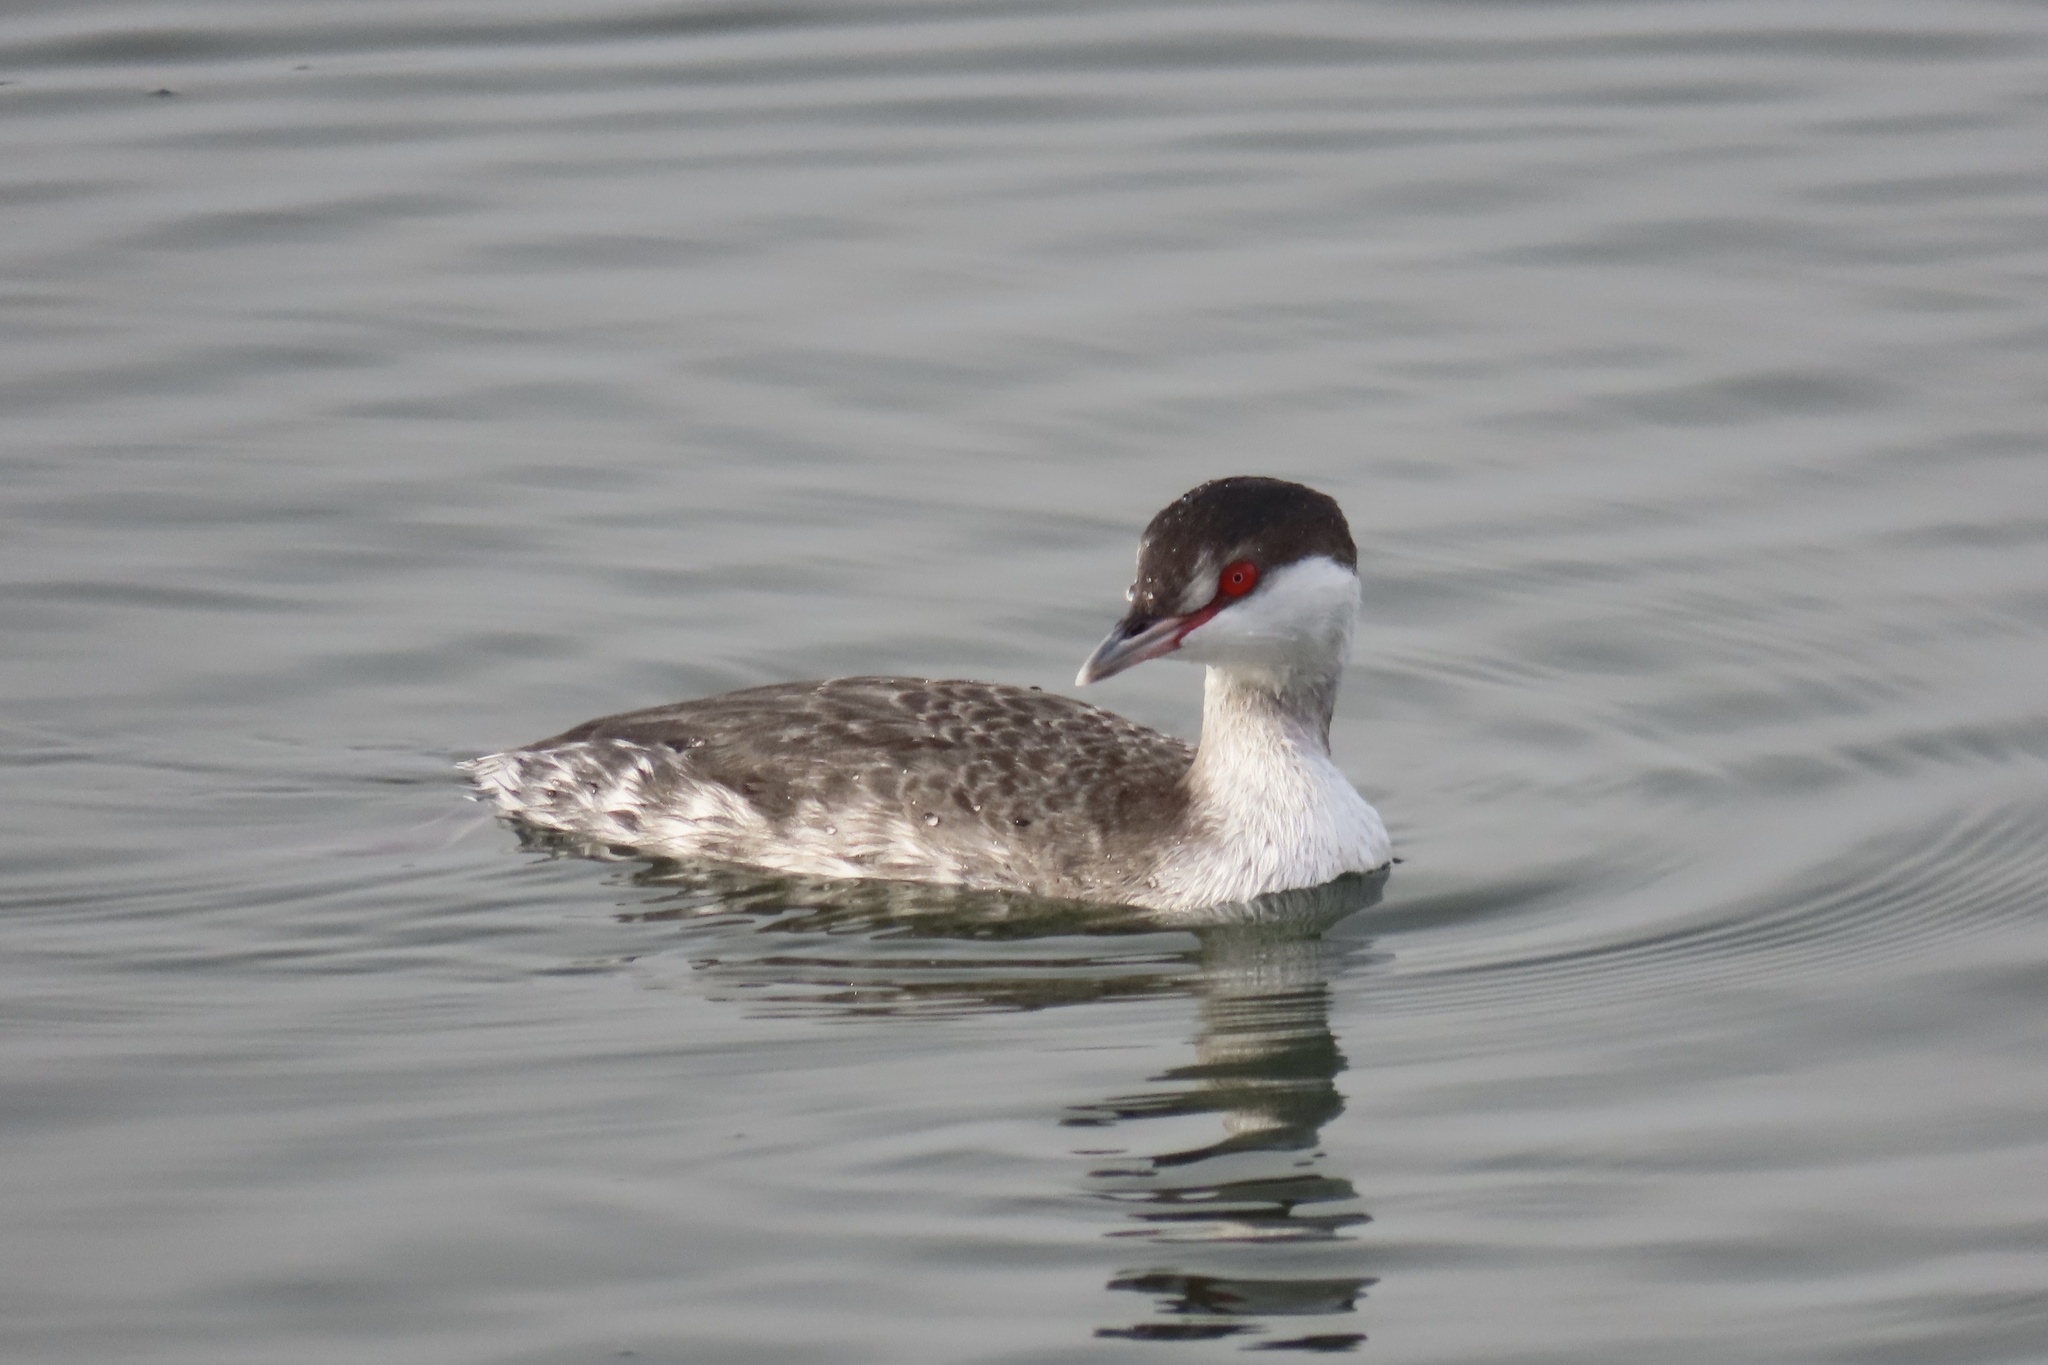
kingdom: Animalia
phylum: Chordata
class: Aves
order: Podicipediformes
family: Podicipedidae
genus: Podiceps
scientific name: Podiceps auritus
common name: Horned grebe
